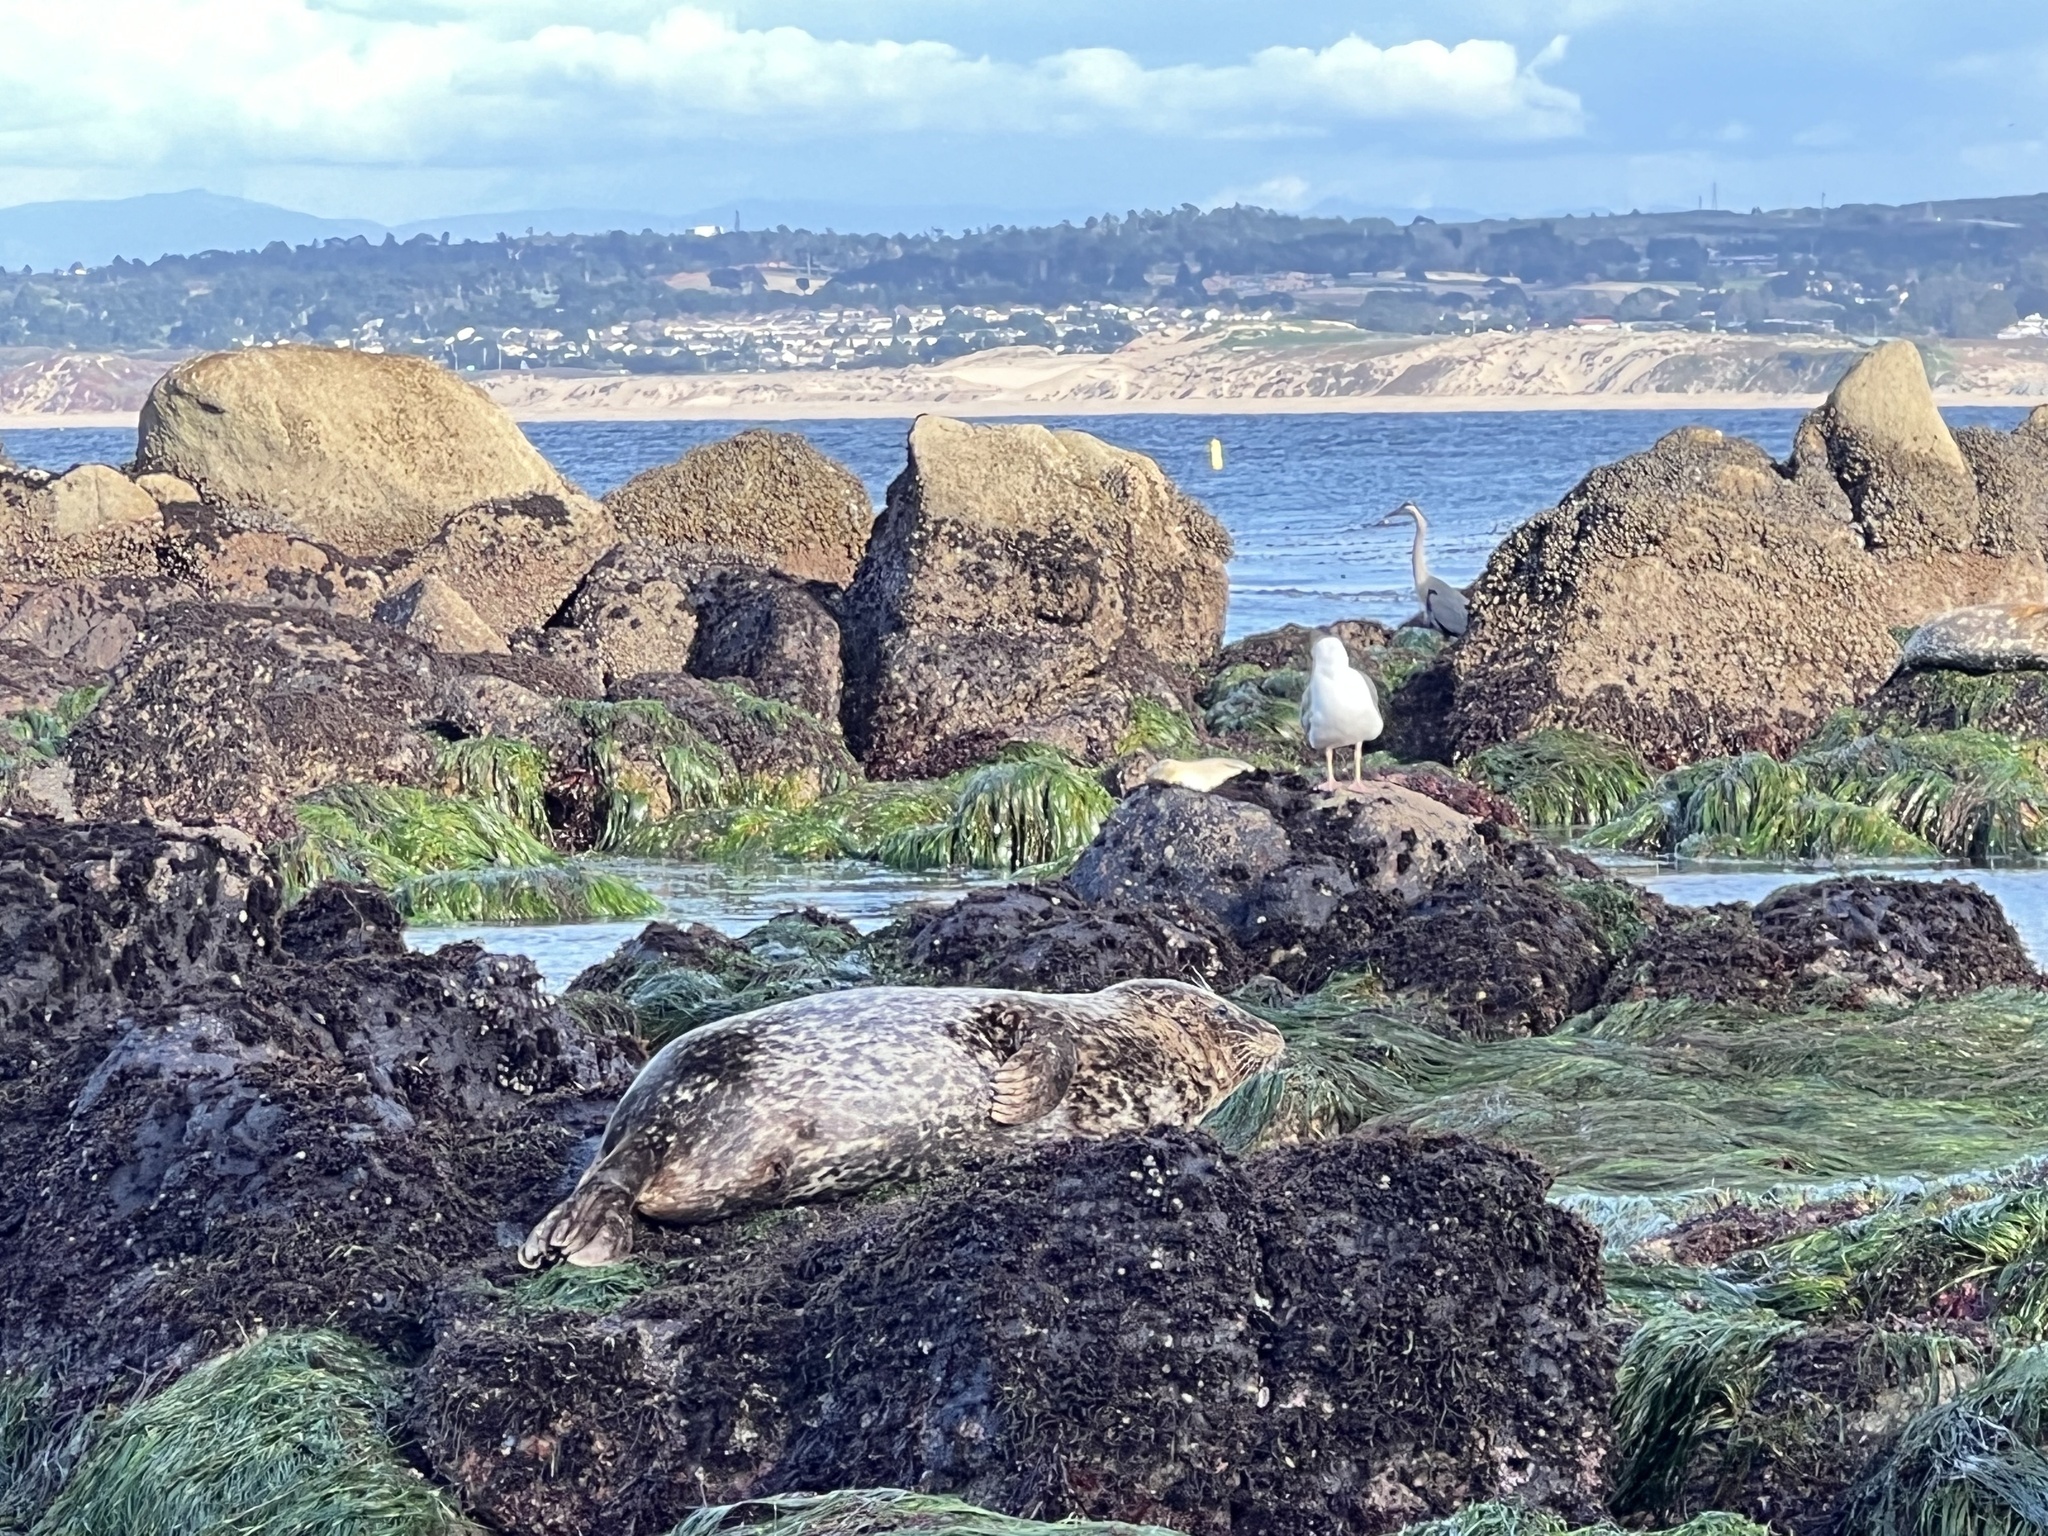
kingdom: Animalia
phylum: Chordata
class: Mammalia
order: Carnivora
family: Phocidae
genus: Phoca
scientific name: Phoca vitulina
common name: Harbor seal
